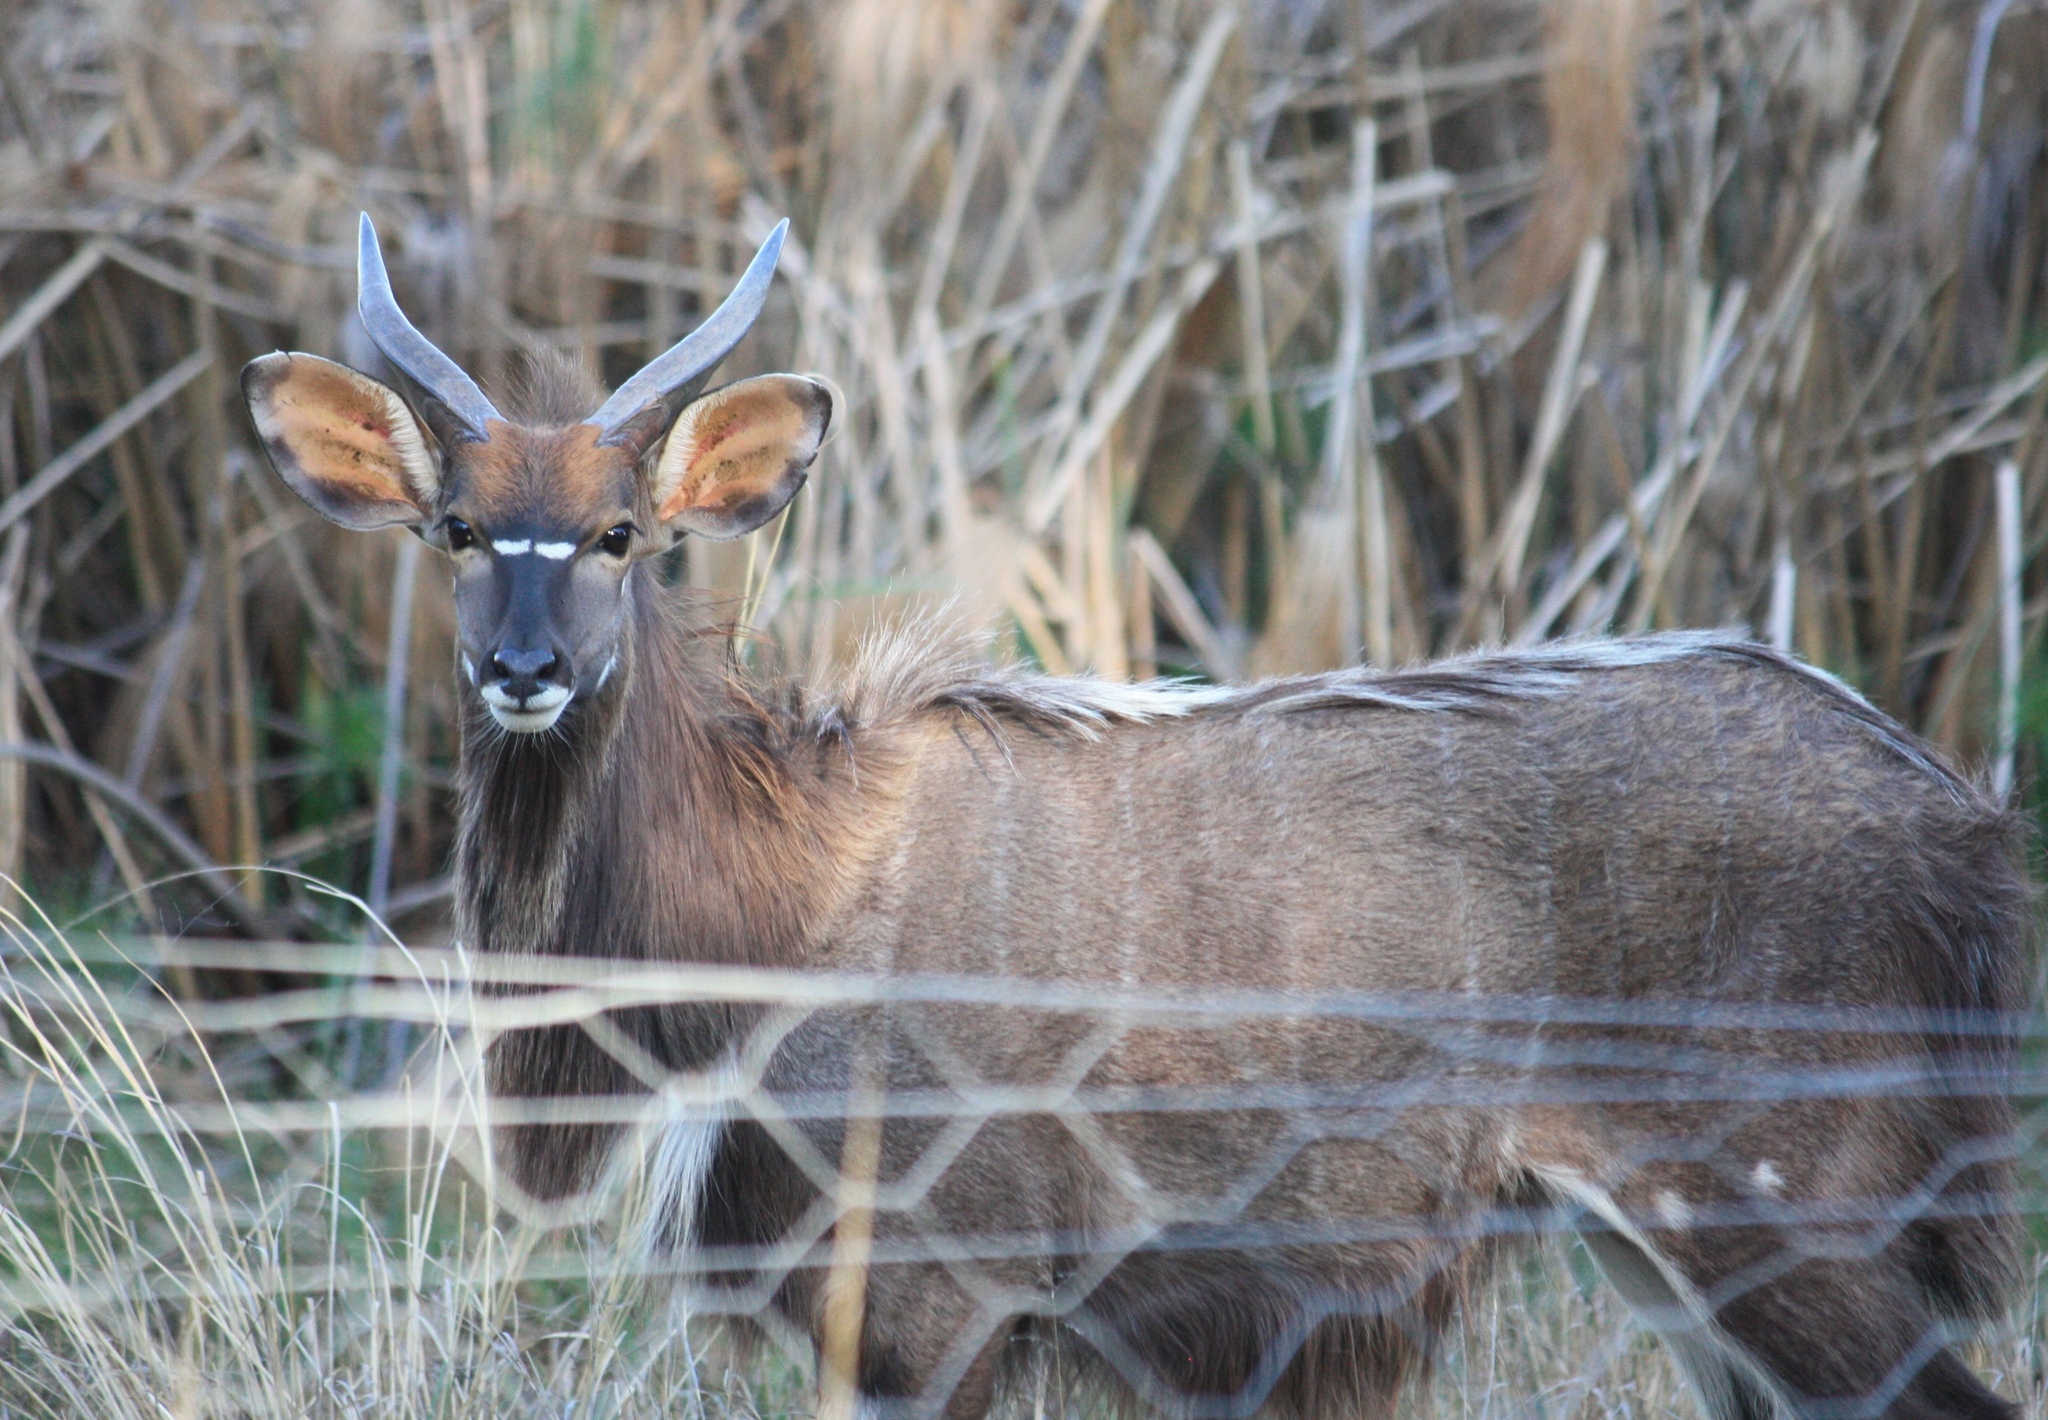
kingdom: Animalia
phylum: Chordata
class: Mammalia
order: Artiodactyla
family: Bovidae
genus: Tragelaphus
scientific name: Tragelaphus angasii
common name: Nyala
